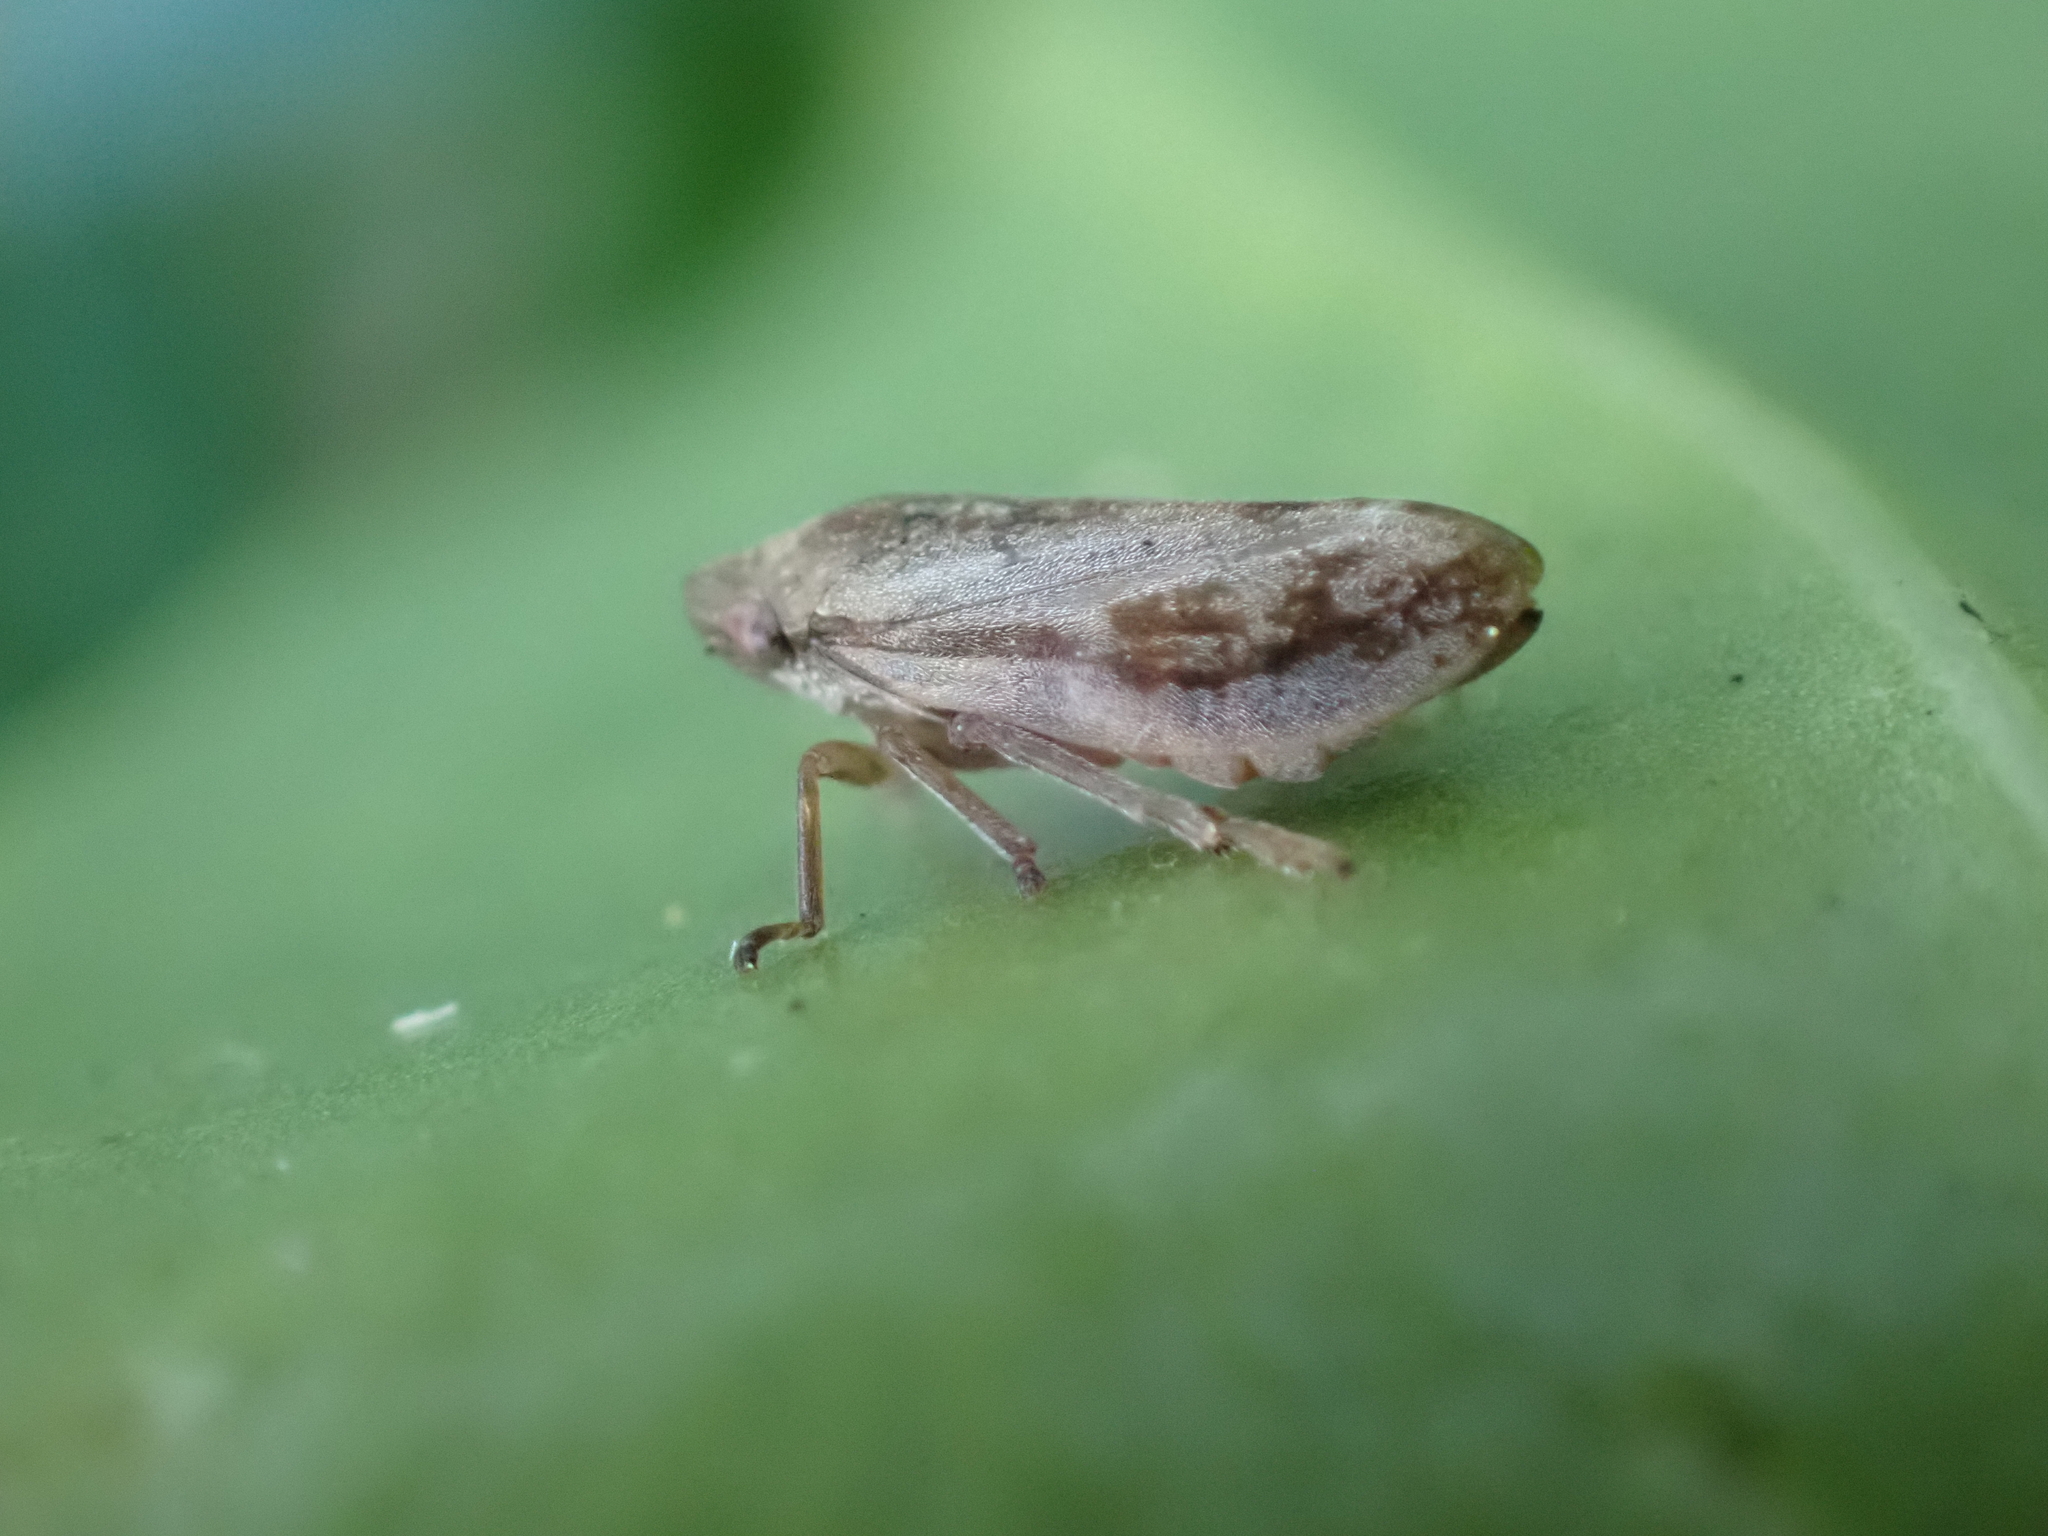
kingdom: Animalia
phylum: Arthropoda
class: Insecta
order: Hemiptera
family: Aphrophoridae
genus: Philaenus
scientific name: Philaenus spumarius
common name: Meadow spittlebug
